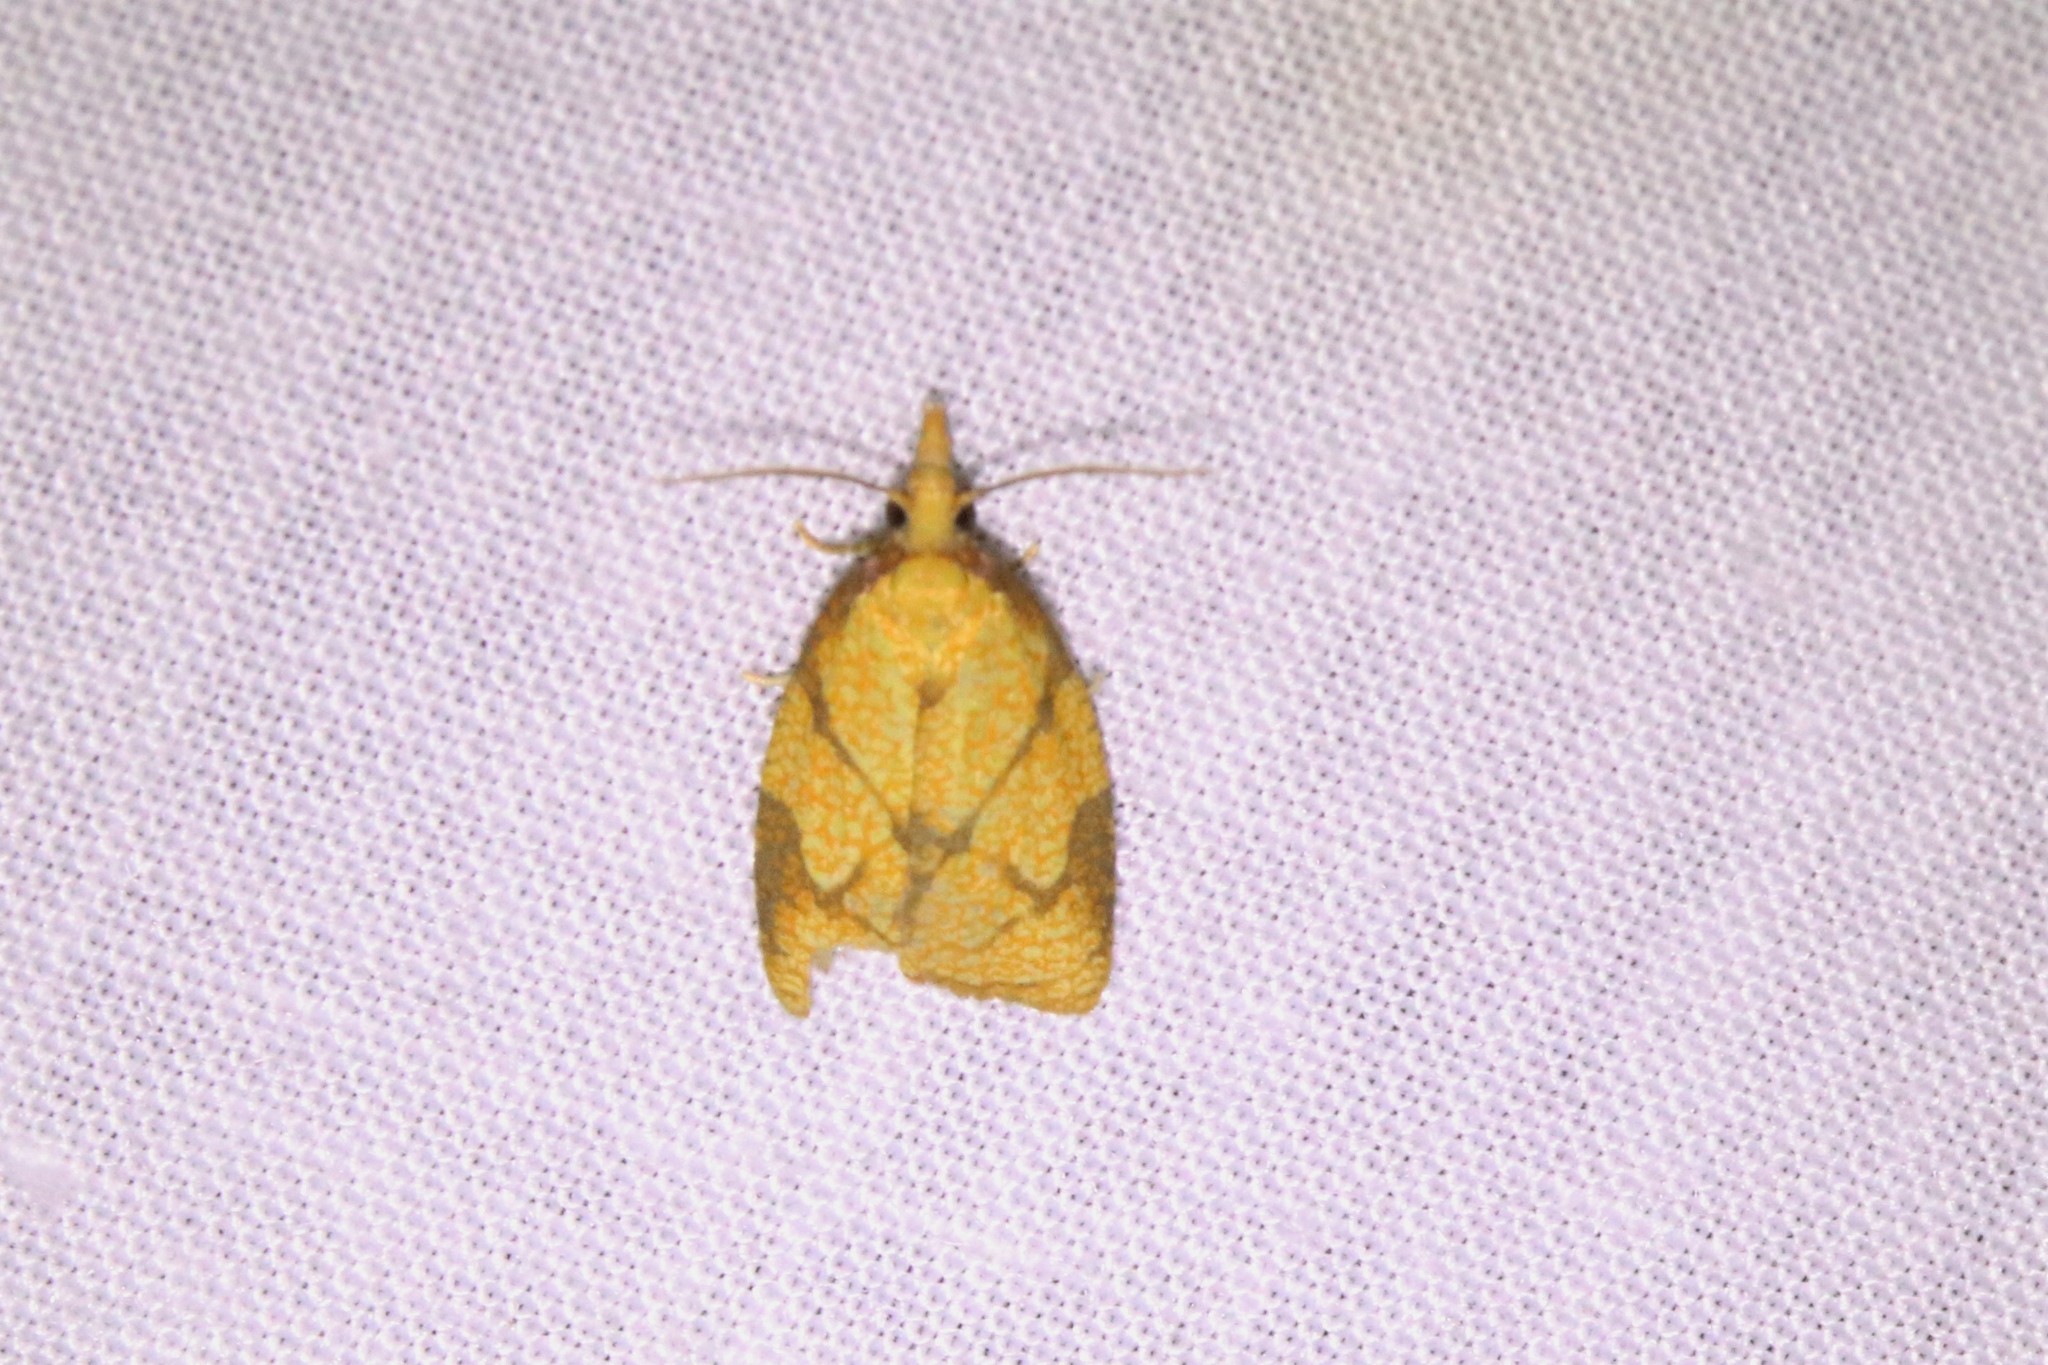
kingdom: Animalia
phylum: Arthropoda
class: Insecta
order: Lepidoptera
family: Tortricidae
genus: Cenopis
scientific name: Cenopis reticulatana
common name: Reticulated fruitworm moth
